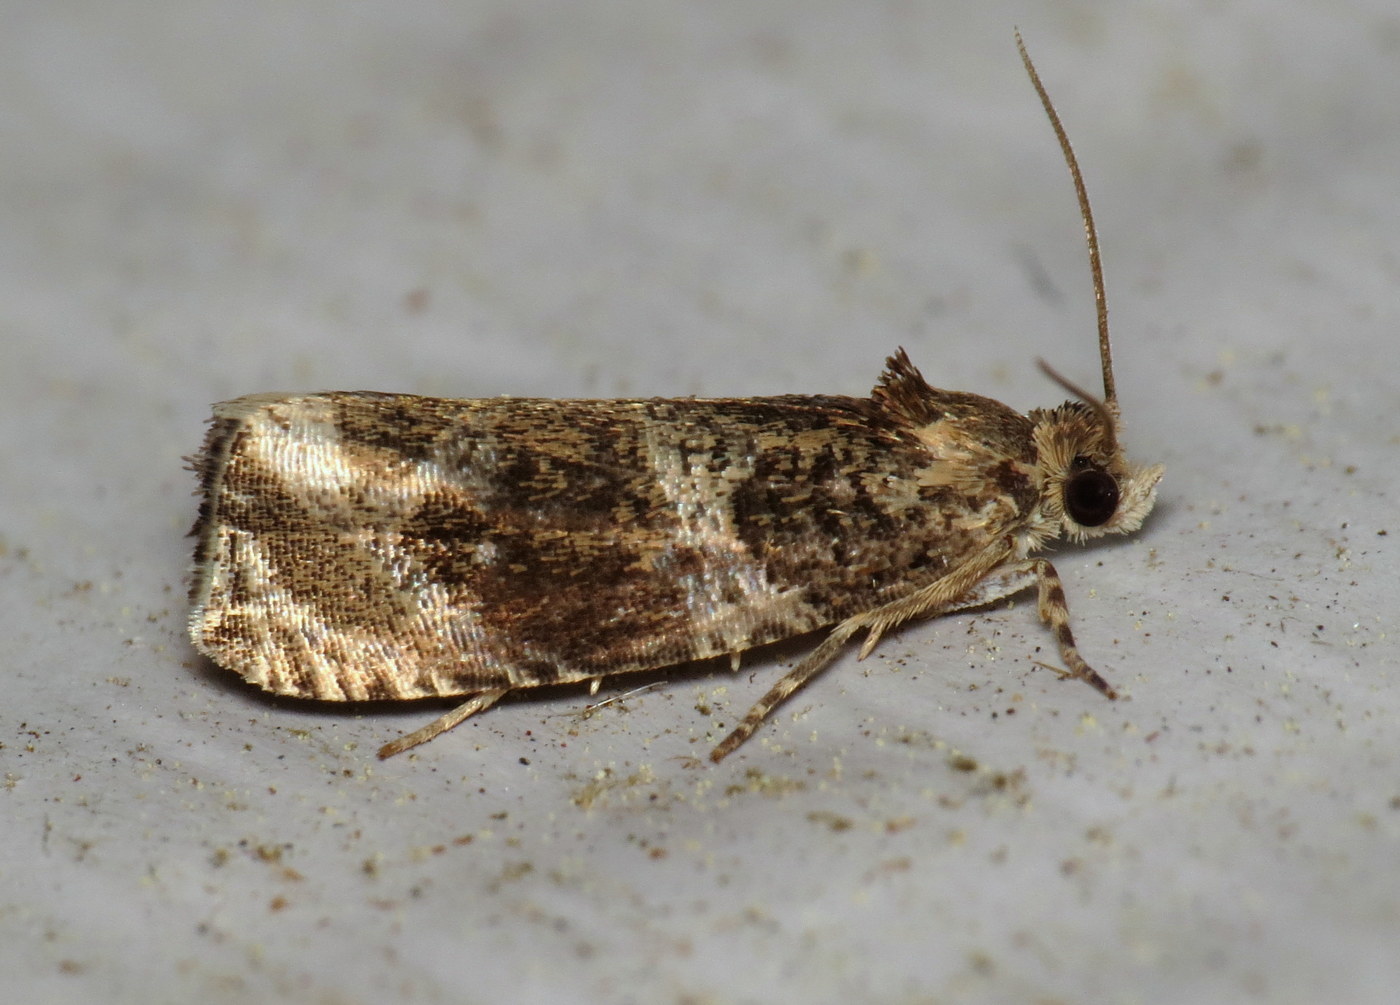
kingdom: Animalia
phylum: Arthropoda
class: Insecta
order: Lepidoptera
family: Tortricidae
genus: Olethreutes
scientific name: Olethreutes appendiceum
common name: Serviceberry leafroller
